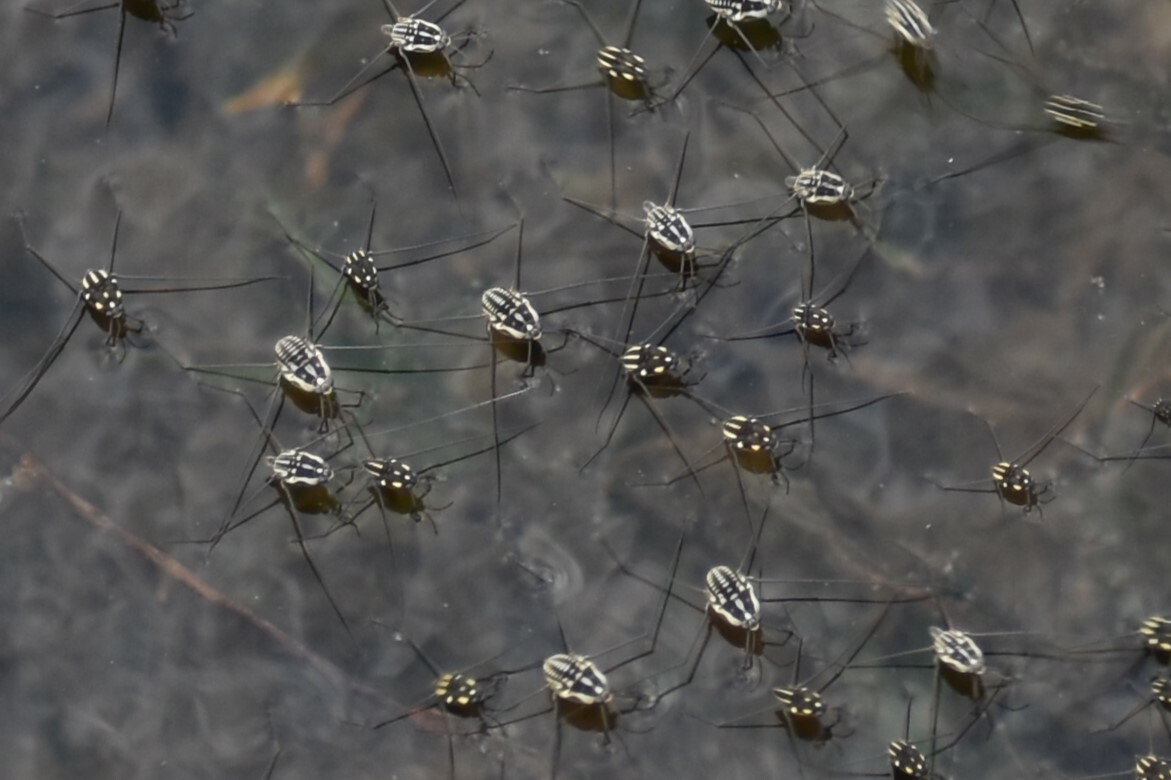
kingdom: Animalia
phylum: Arthropoda
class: Insecta
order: Hemiptera
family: Gerridae
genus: Metrobates
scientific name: Metrobates trux
